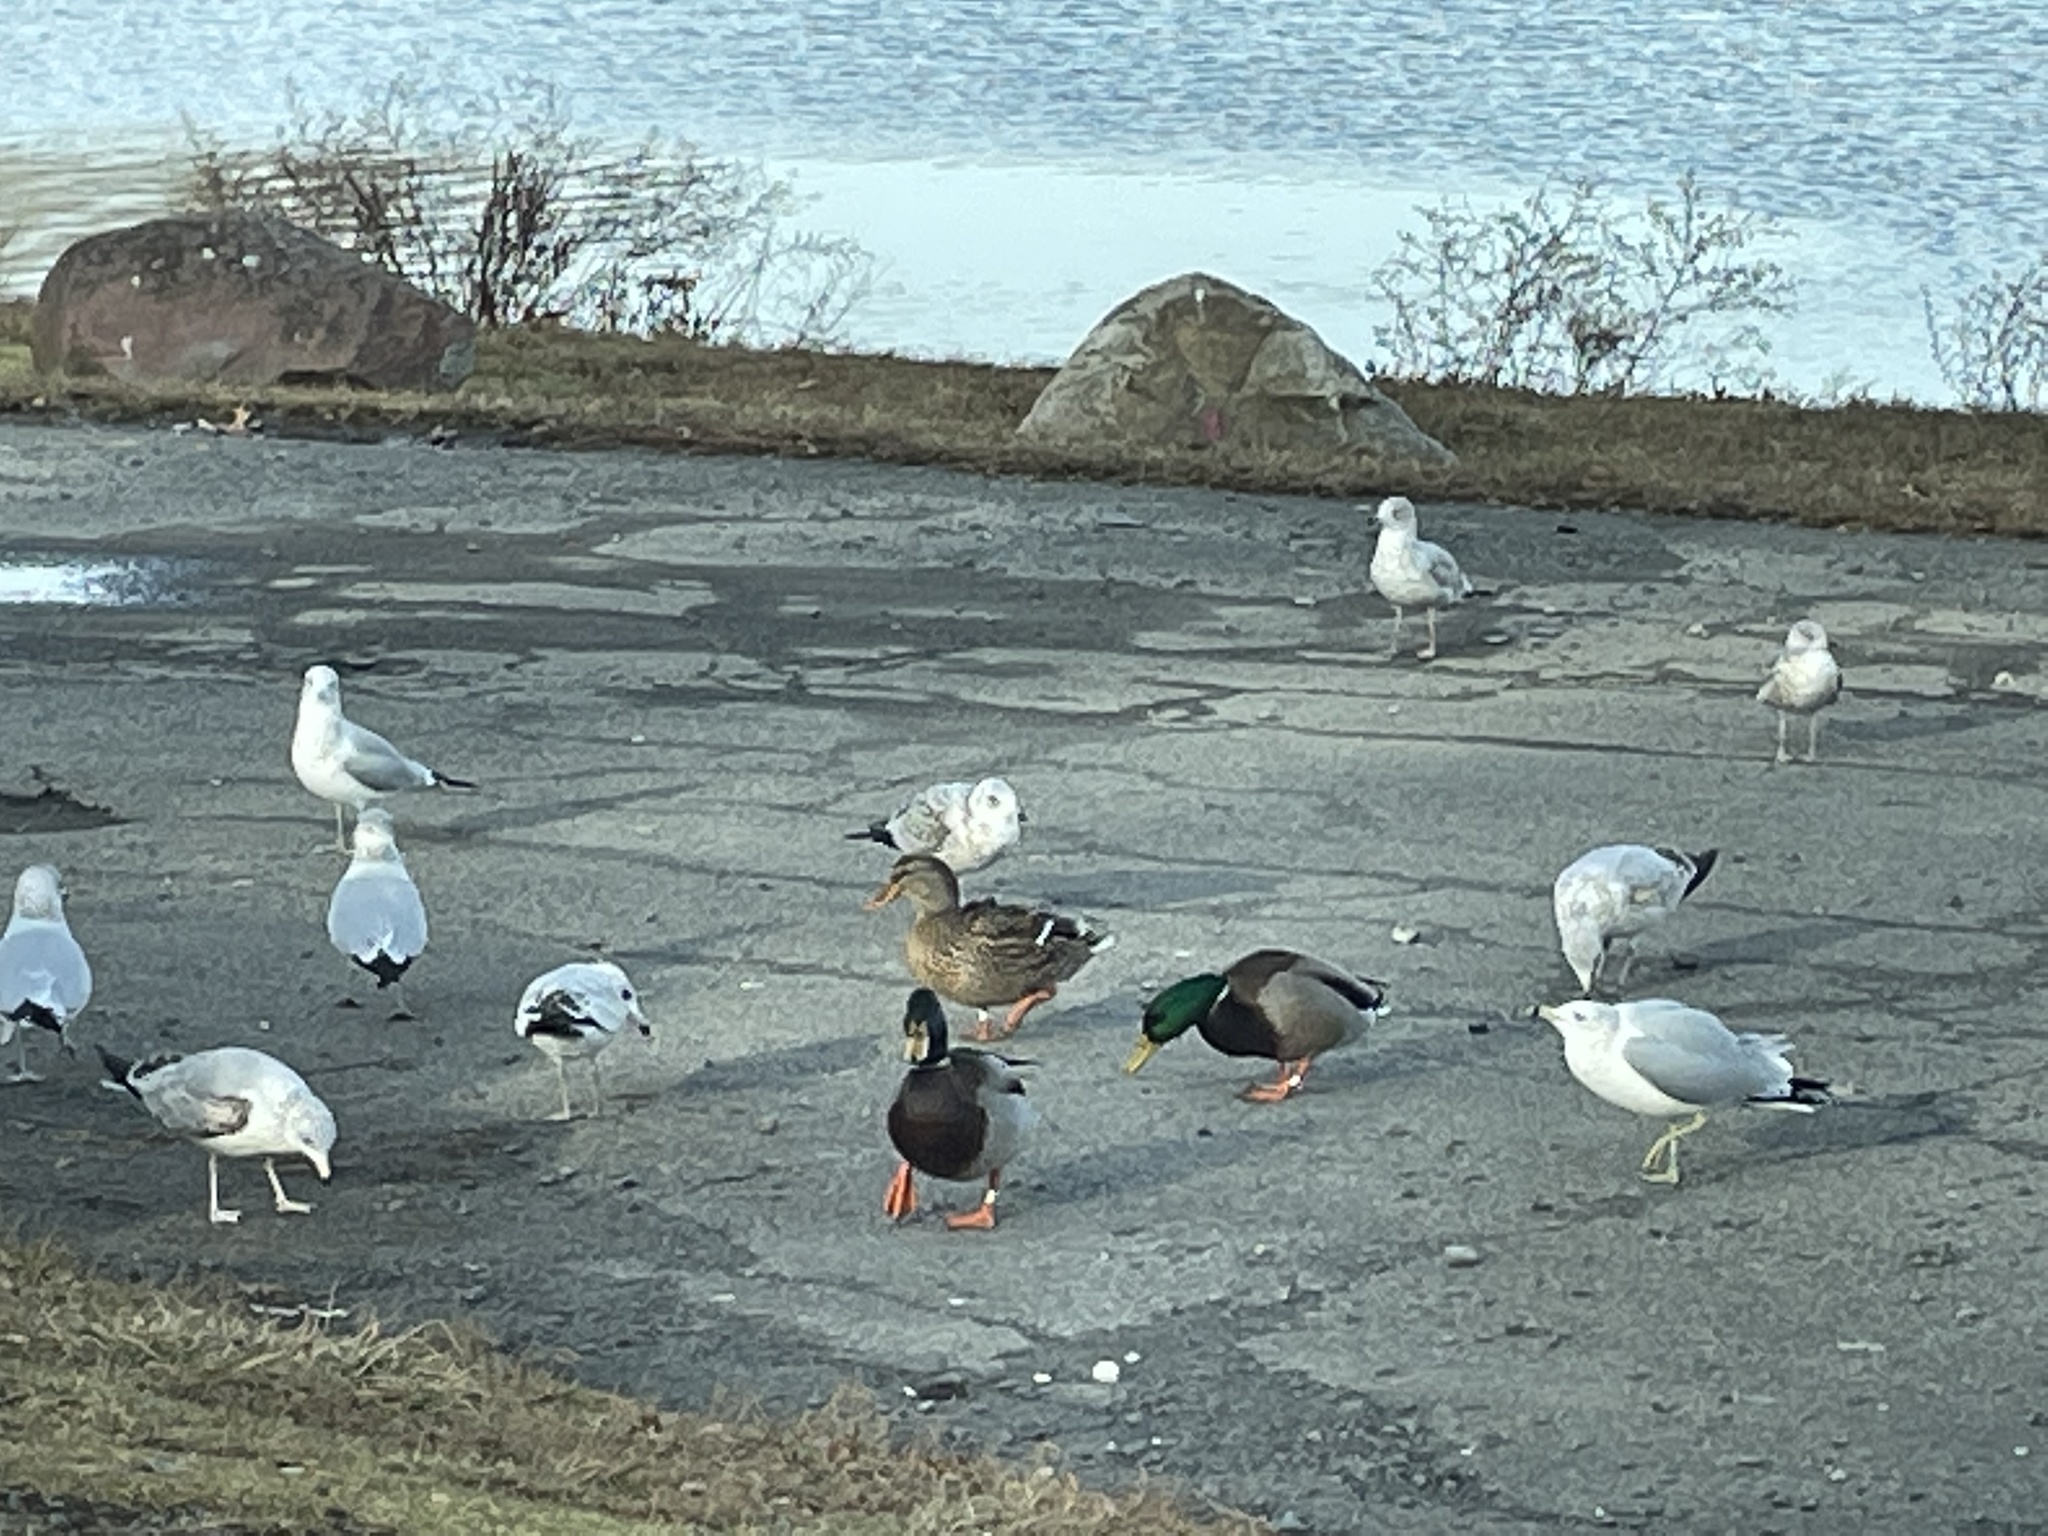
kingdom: Animalia
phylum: Chordata
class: Aves
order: Anseriformes
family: Anatidae
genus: Anas
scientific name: Anas platyrhynchos
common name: Mallard
